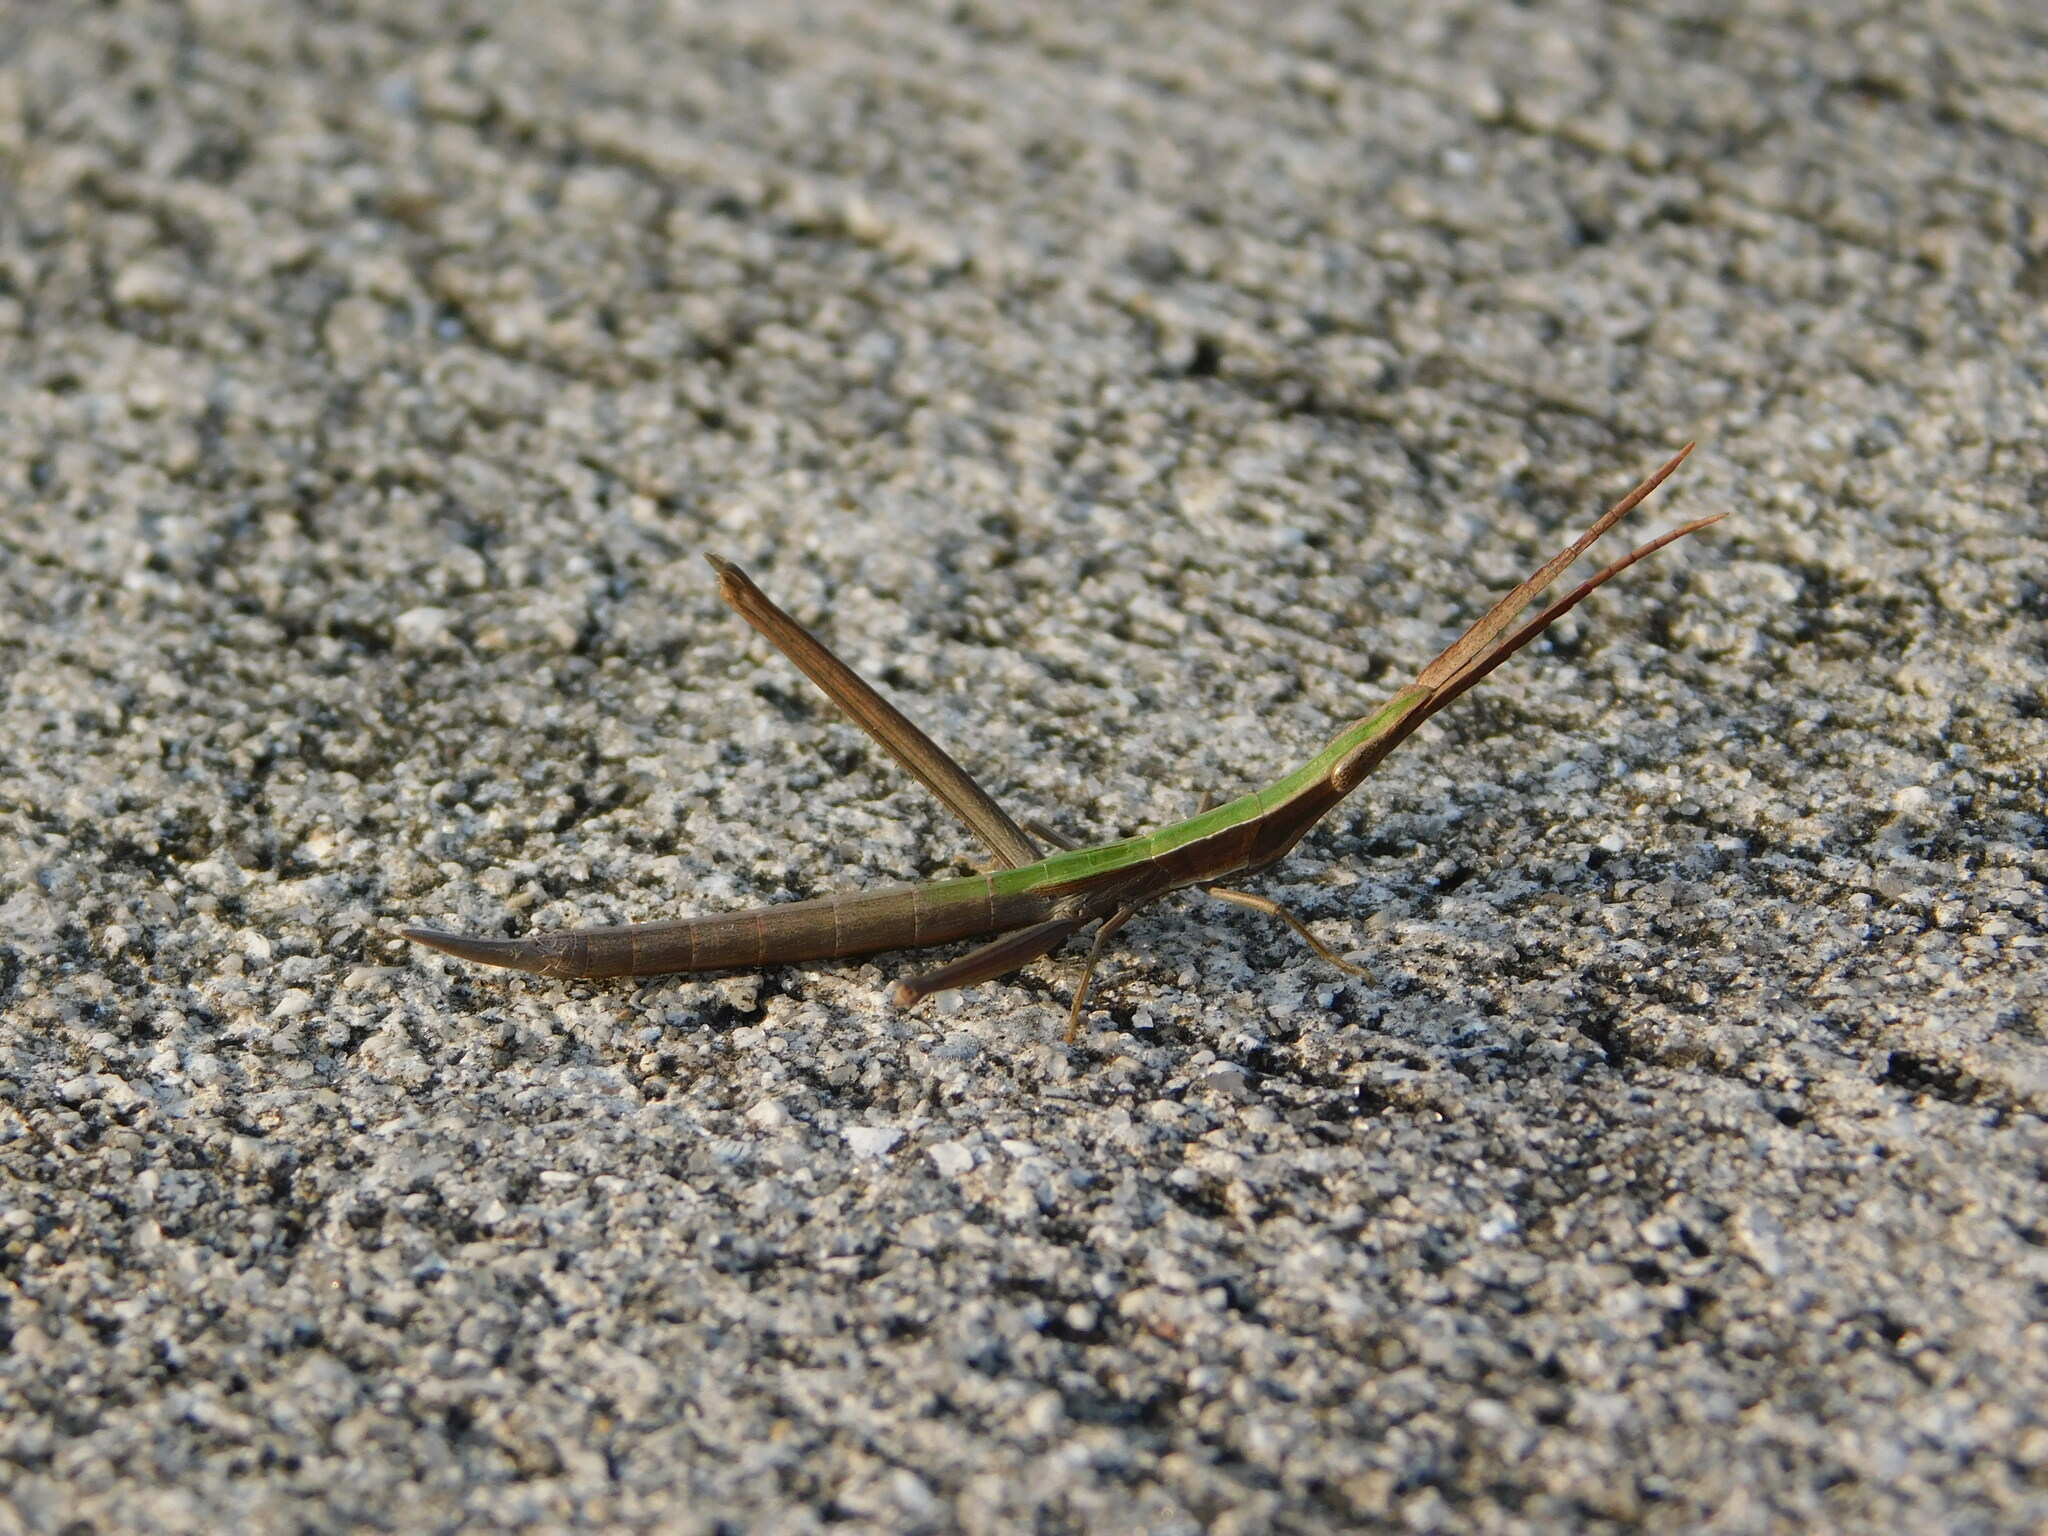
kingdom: Animalia
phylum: Arthropoda
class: Insecta
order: Orthoptera
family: Acrididae
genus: Achurum
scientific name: Achurum carinatum
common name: Long-headed toothpick grasshopper
